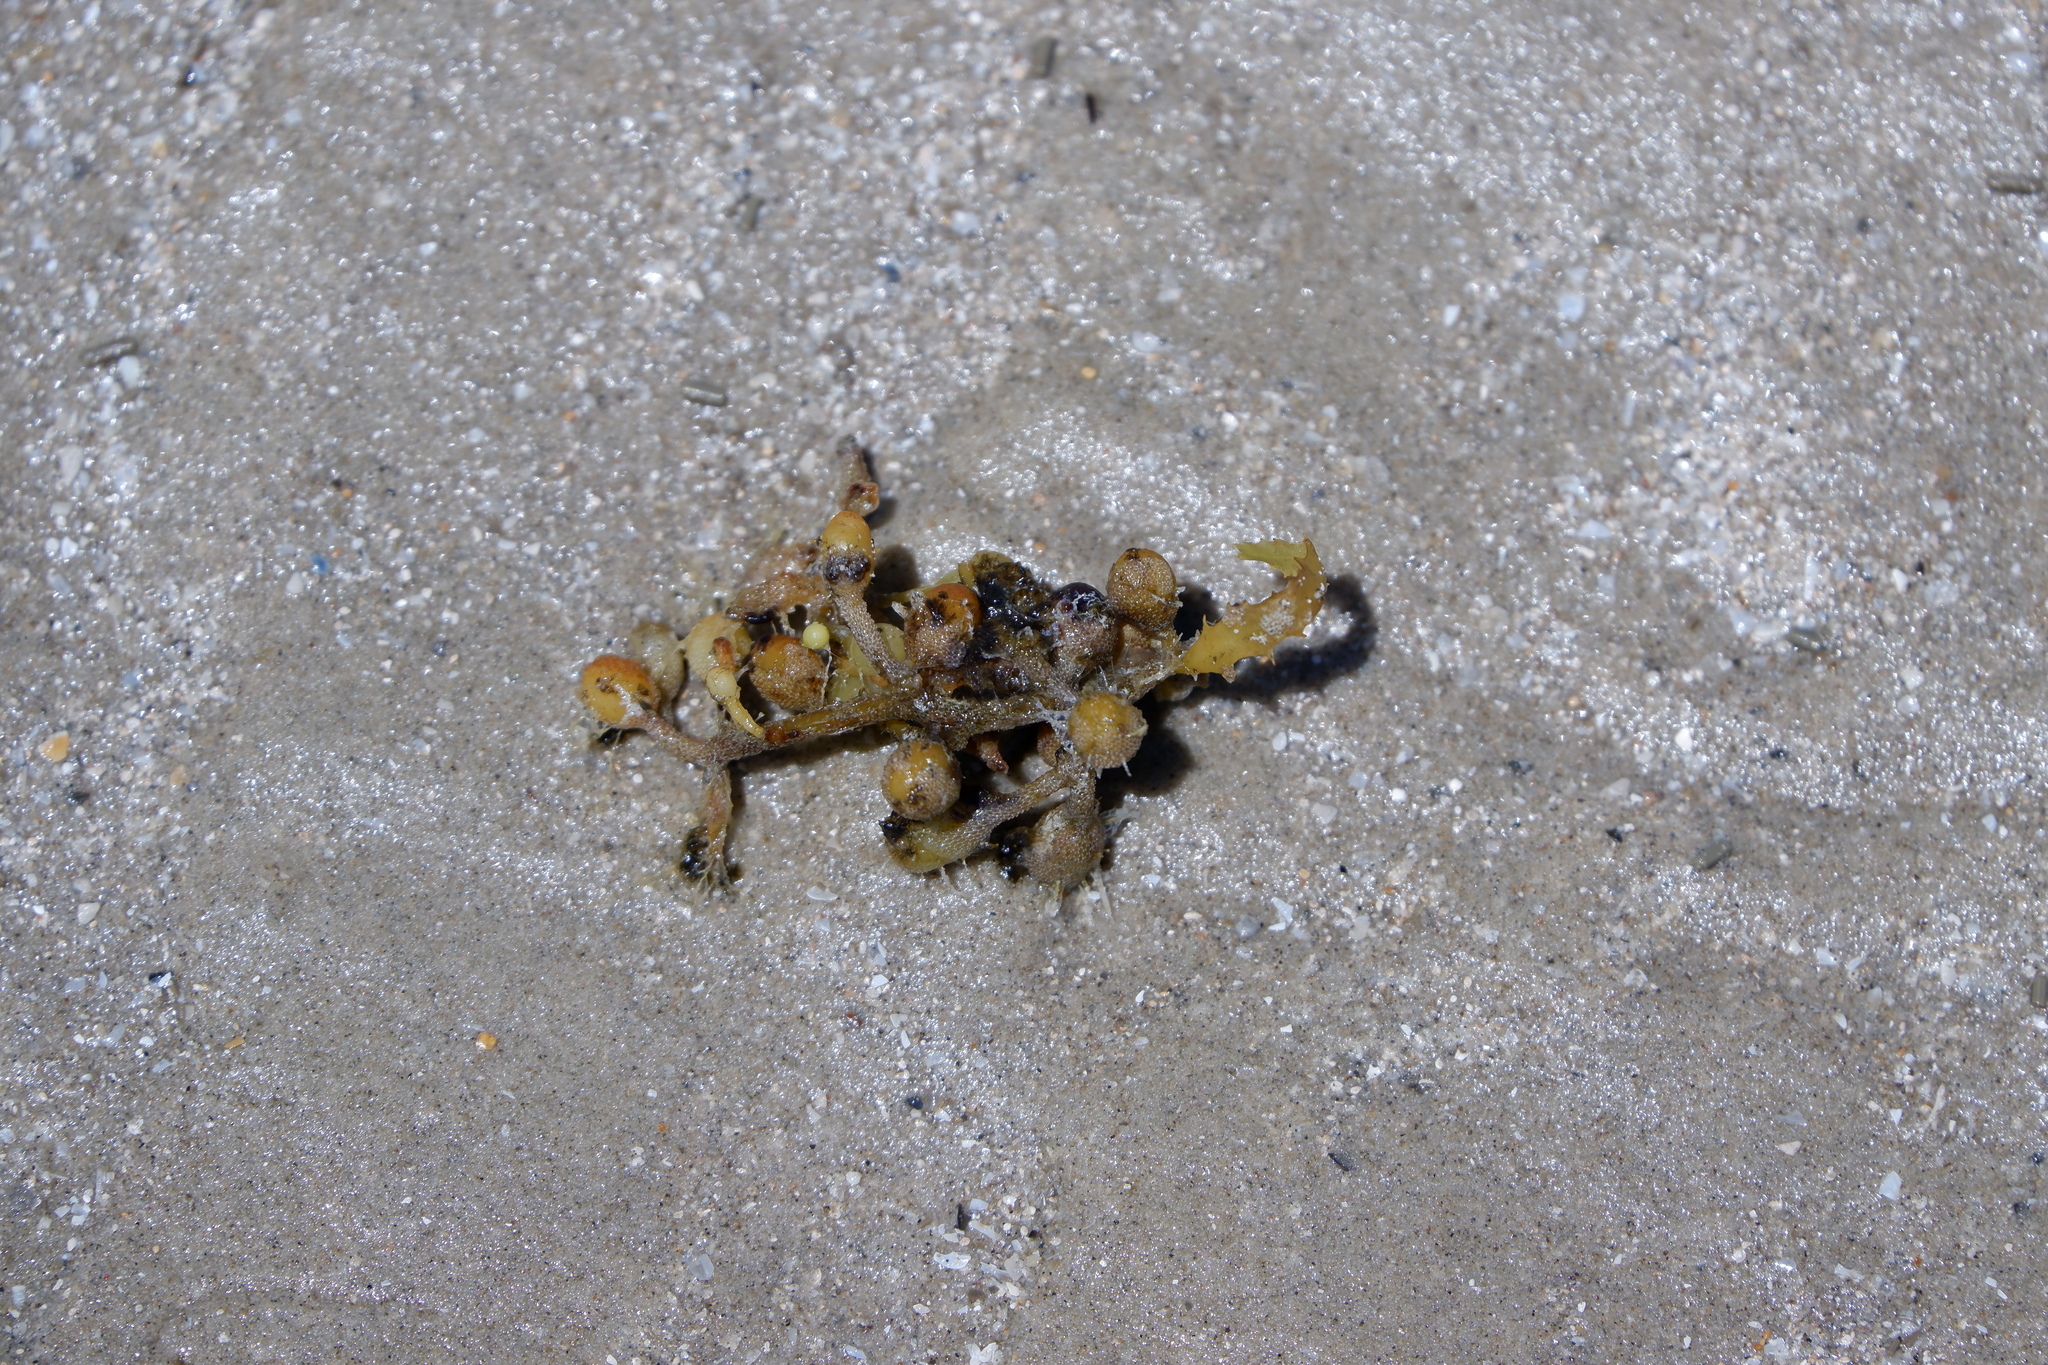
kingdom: Chromista
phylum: Ochrophyta
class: Phaeophyceae
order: Fucales
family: Sargassaceae
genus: Sargassum
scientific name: Sargassum fluitans
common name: Sargassum seaweed
